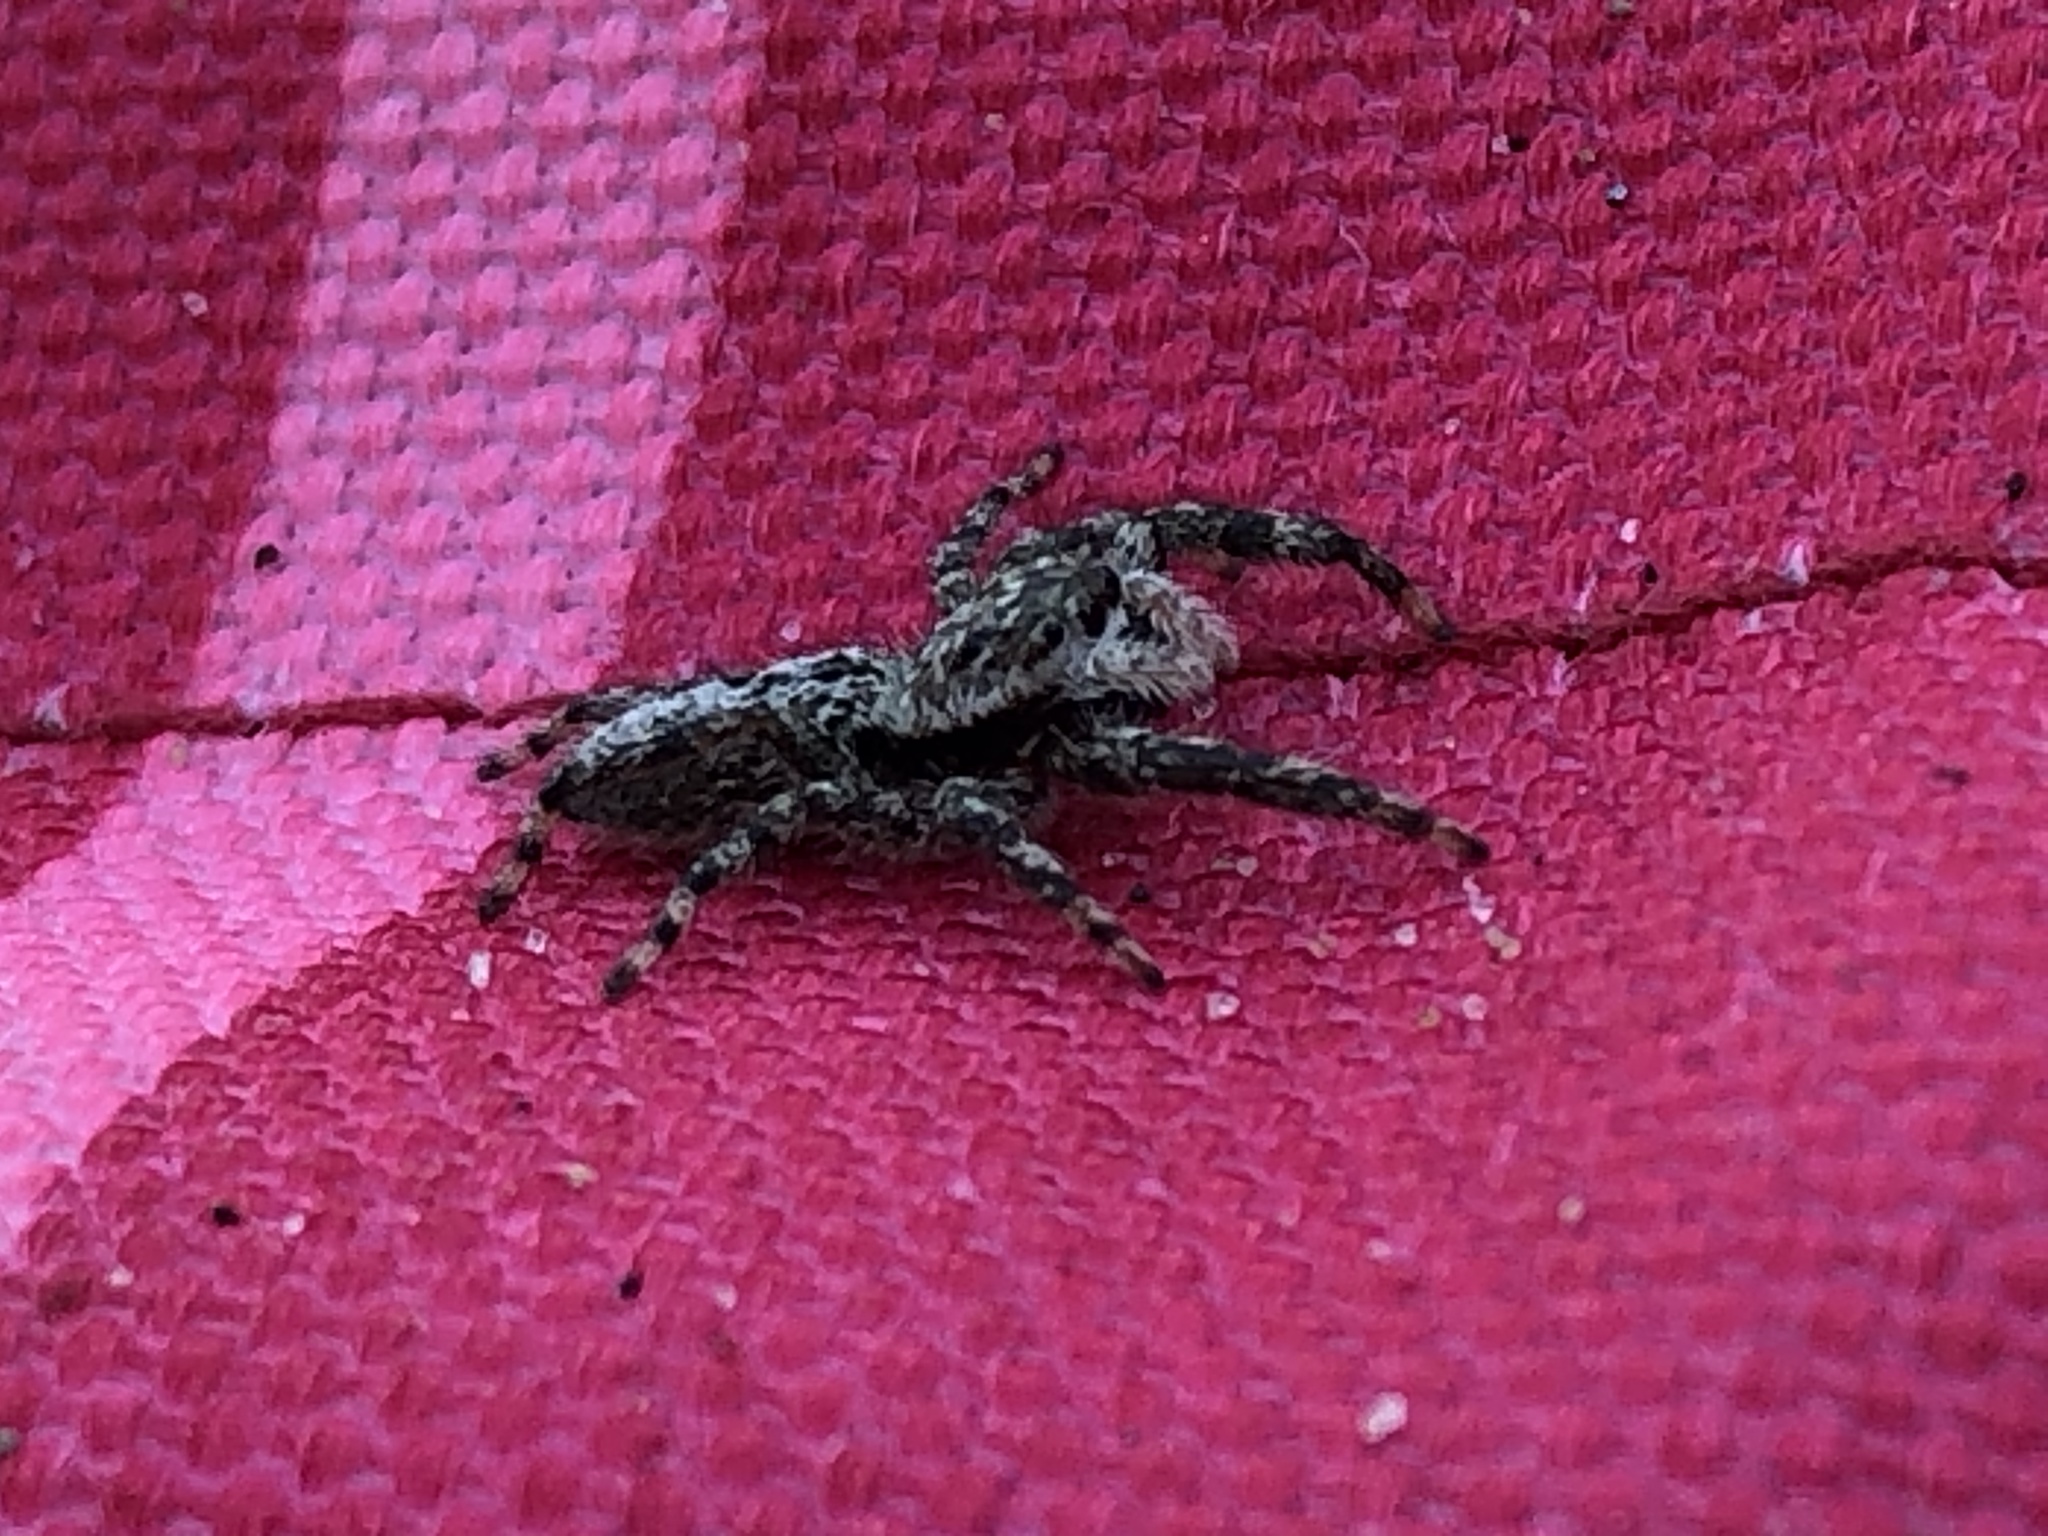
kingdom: Animalia
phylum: Arthropoda
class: Arachnida
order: Araneae
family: Salticidae
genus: Platycryptus
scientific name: Platycryptus undatus
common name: Tan jumping spider
